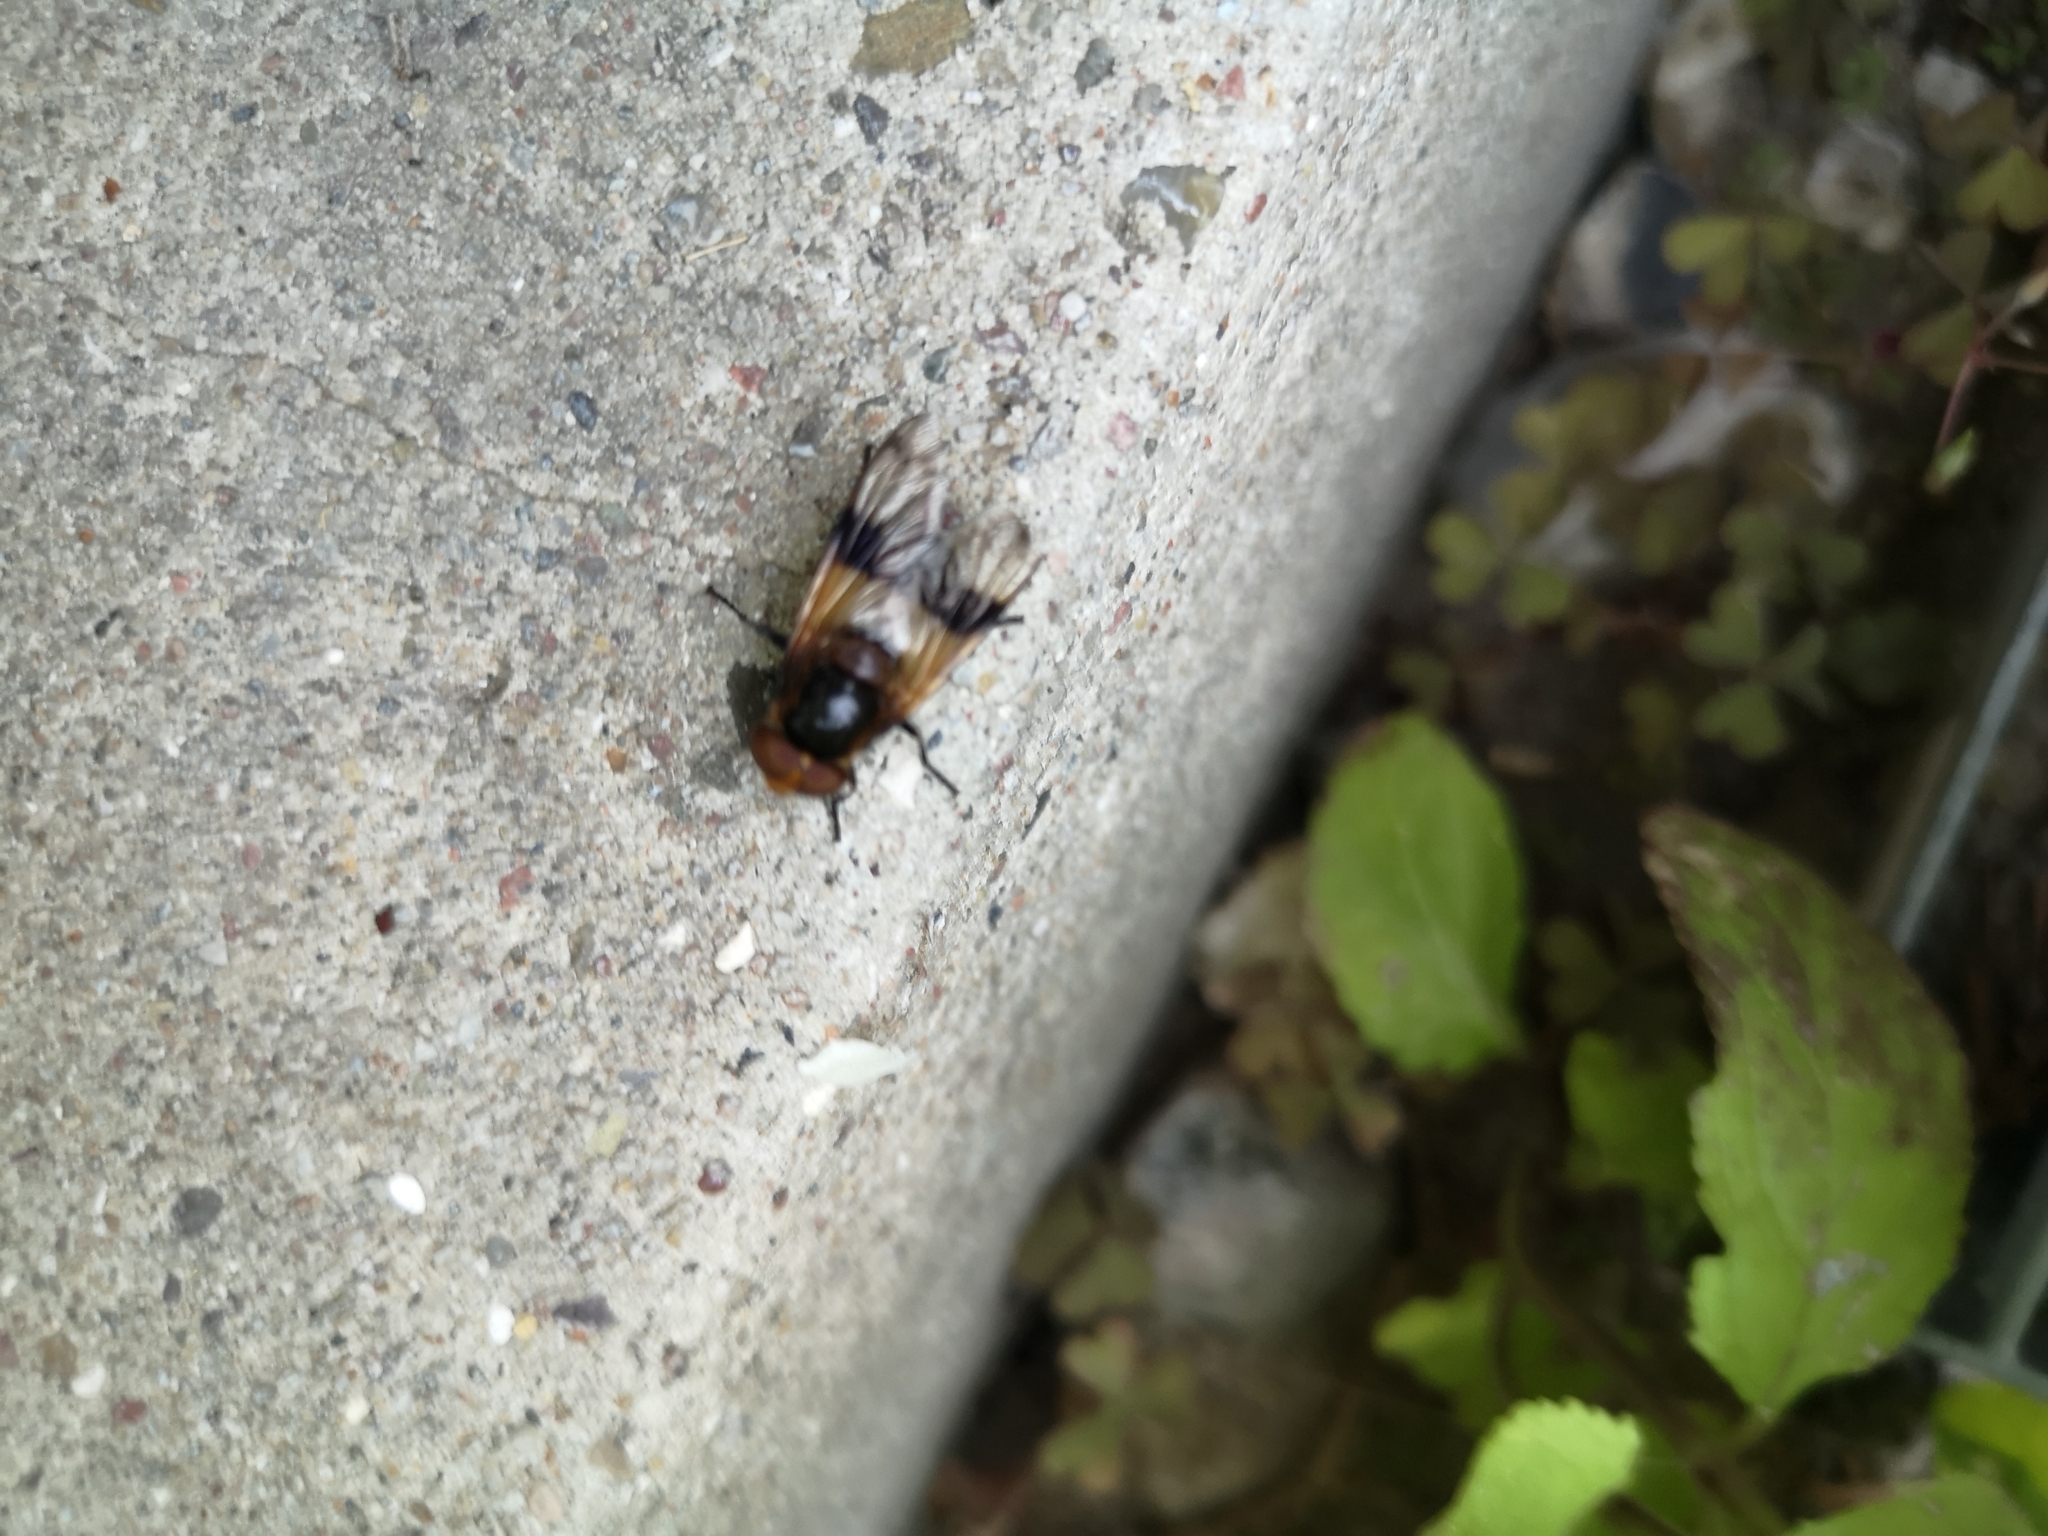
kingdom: Animalia
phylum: Arthropoda
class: Insecta
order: Diptera
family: Syrphidae
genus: Volucella
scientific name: Volucella pellucens
